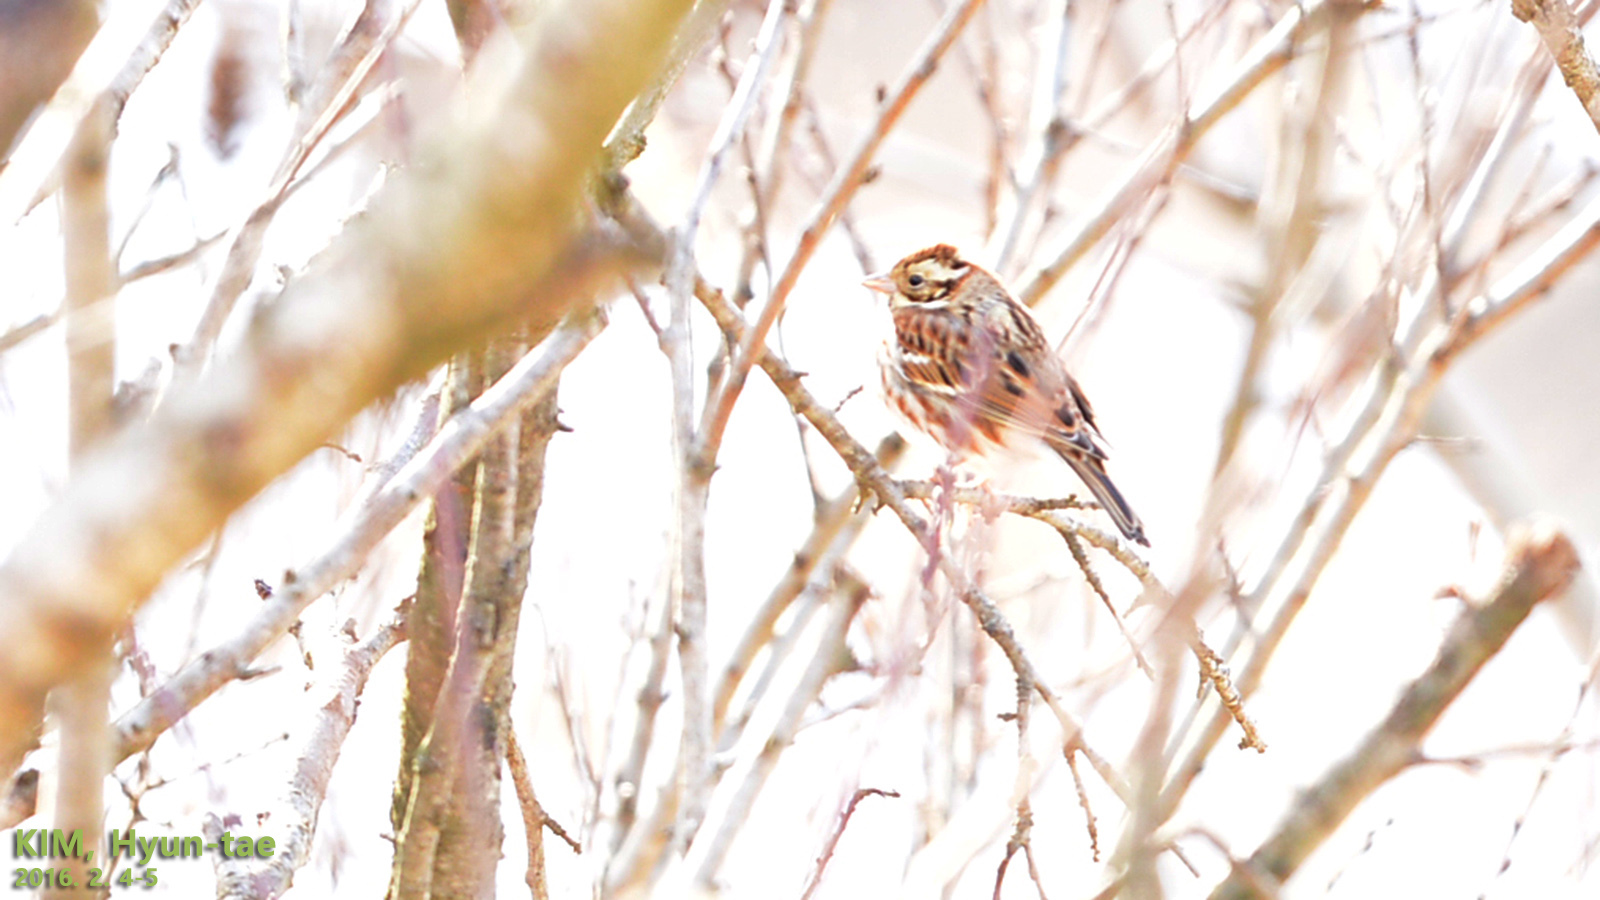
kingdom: Animalia
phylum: Chordata
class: Aves
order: Passeriformes
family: Emberizidae
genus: Emberiza
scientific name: Emberiza rustica
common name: Rustic bunting
